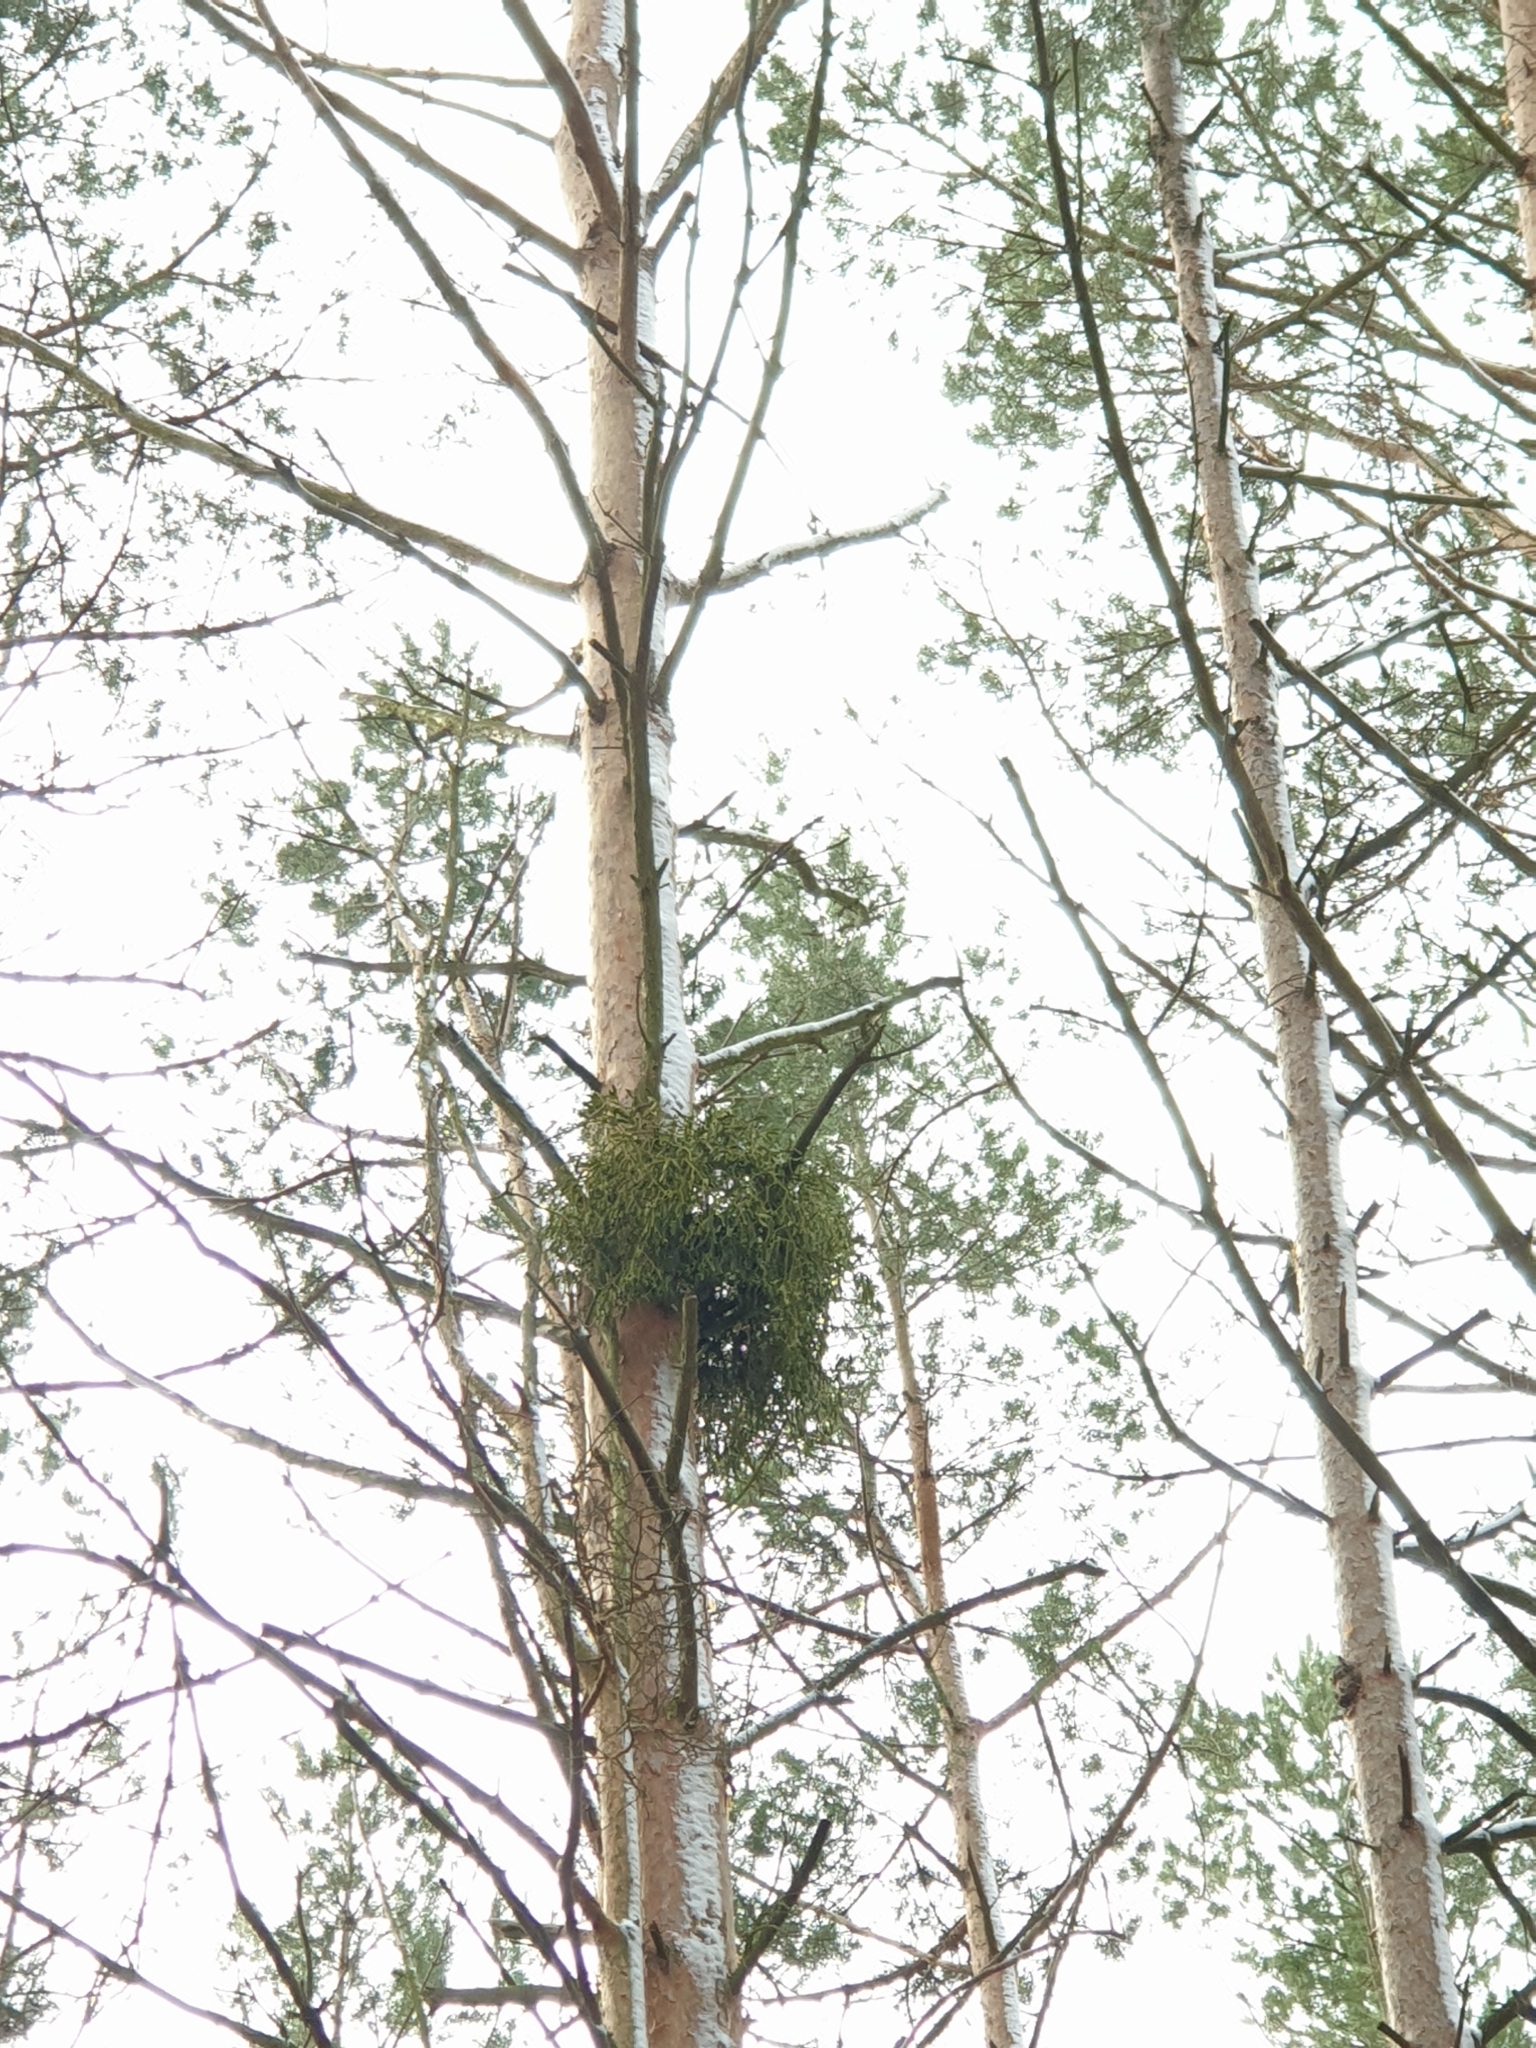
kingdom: Plantae
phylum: Tracheophyta
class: Magnoliopsida
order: Santalales
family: Viscaceae
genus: Viscum
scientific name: Viscum laxum
